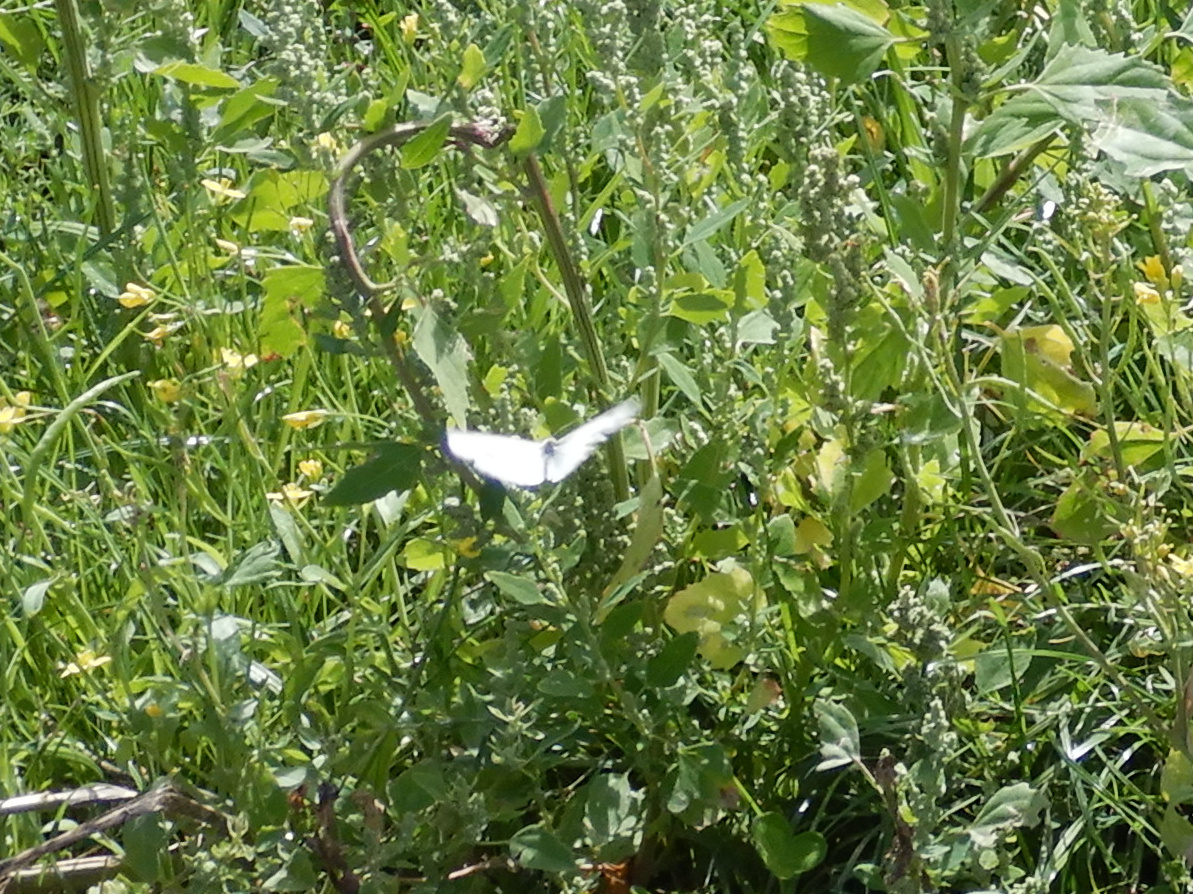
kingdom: Animalia
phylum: Arthropoda
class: Insecta
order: Lepidoptera
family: Pieridae
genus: Pieris
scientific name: Pieris rapae
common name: Small white
